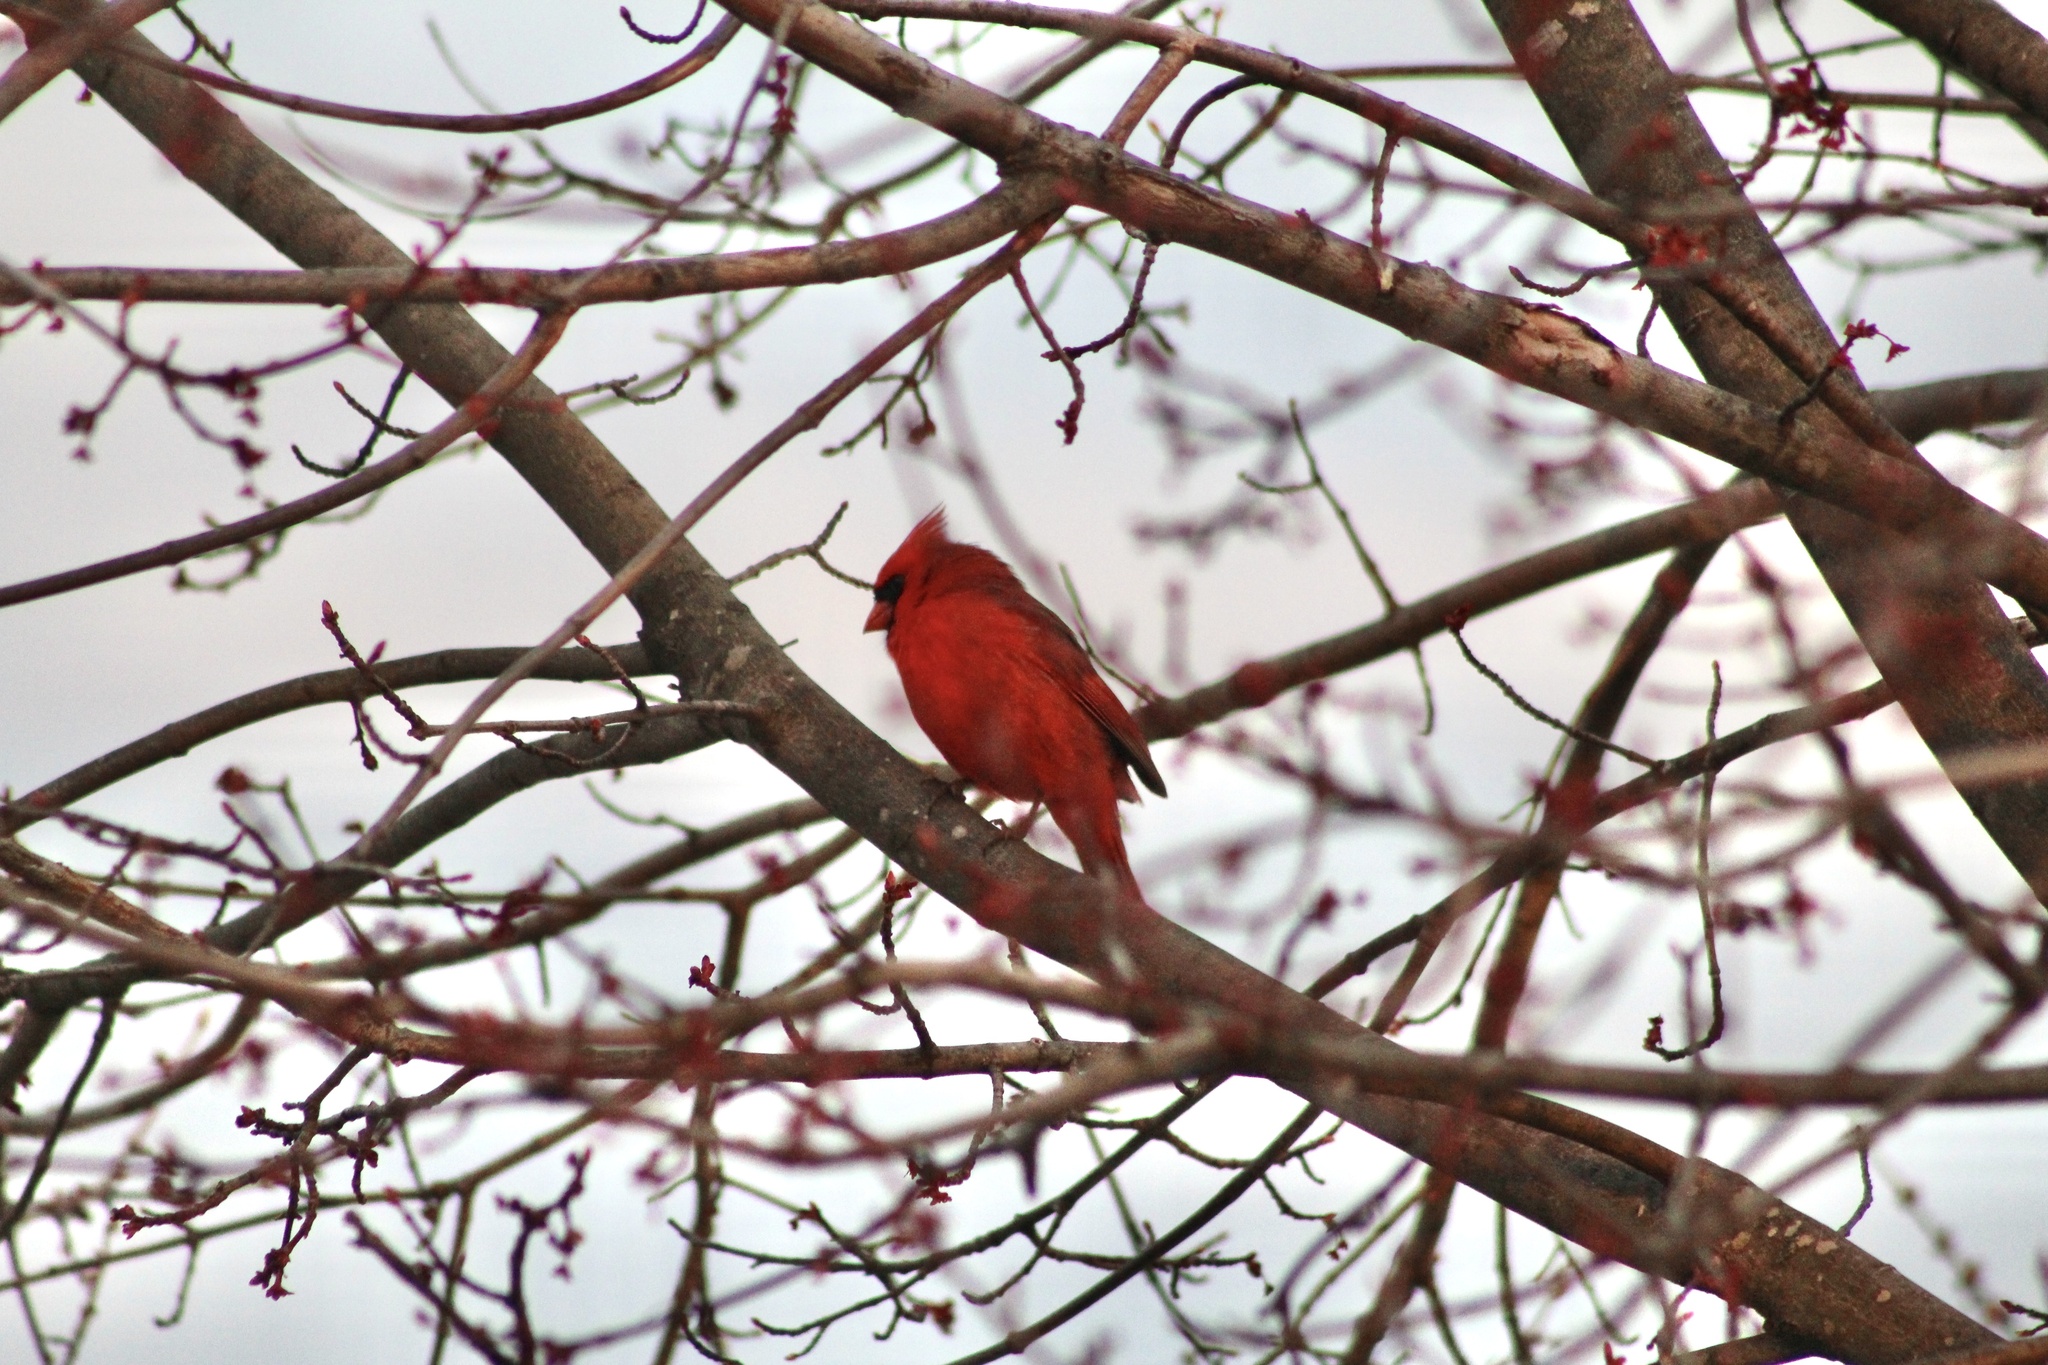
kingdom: Animalia
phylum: Chordata
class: Aves
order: Passeriformes
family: Cardinalidae
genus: Cardinalis
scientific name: Cardinalis cardinalis
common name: Northern cardinal
